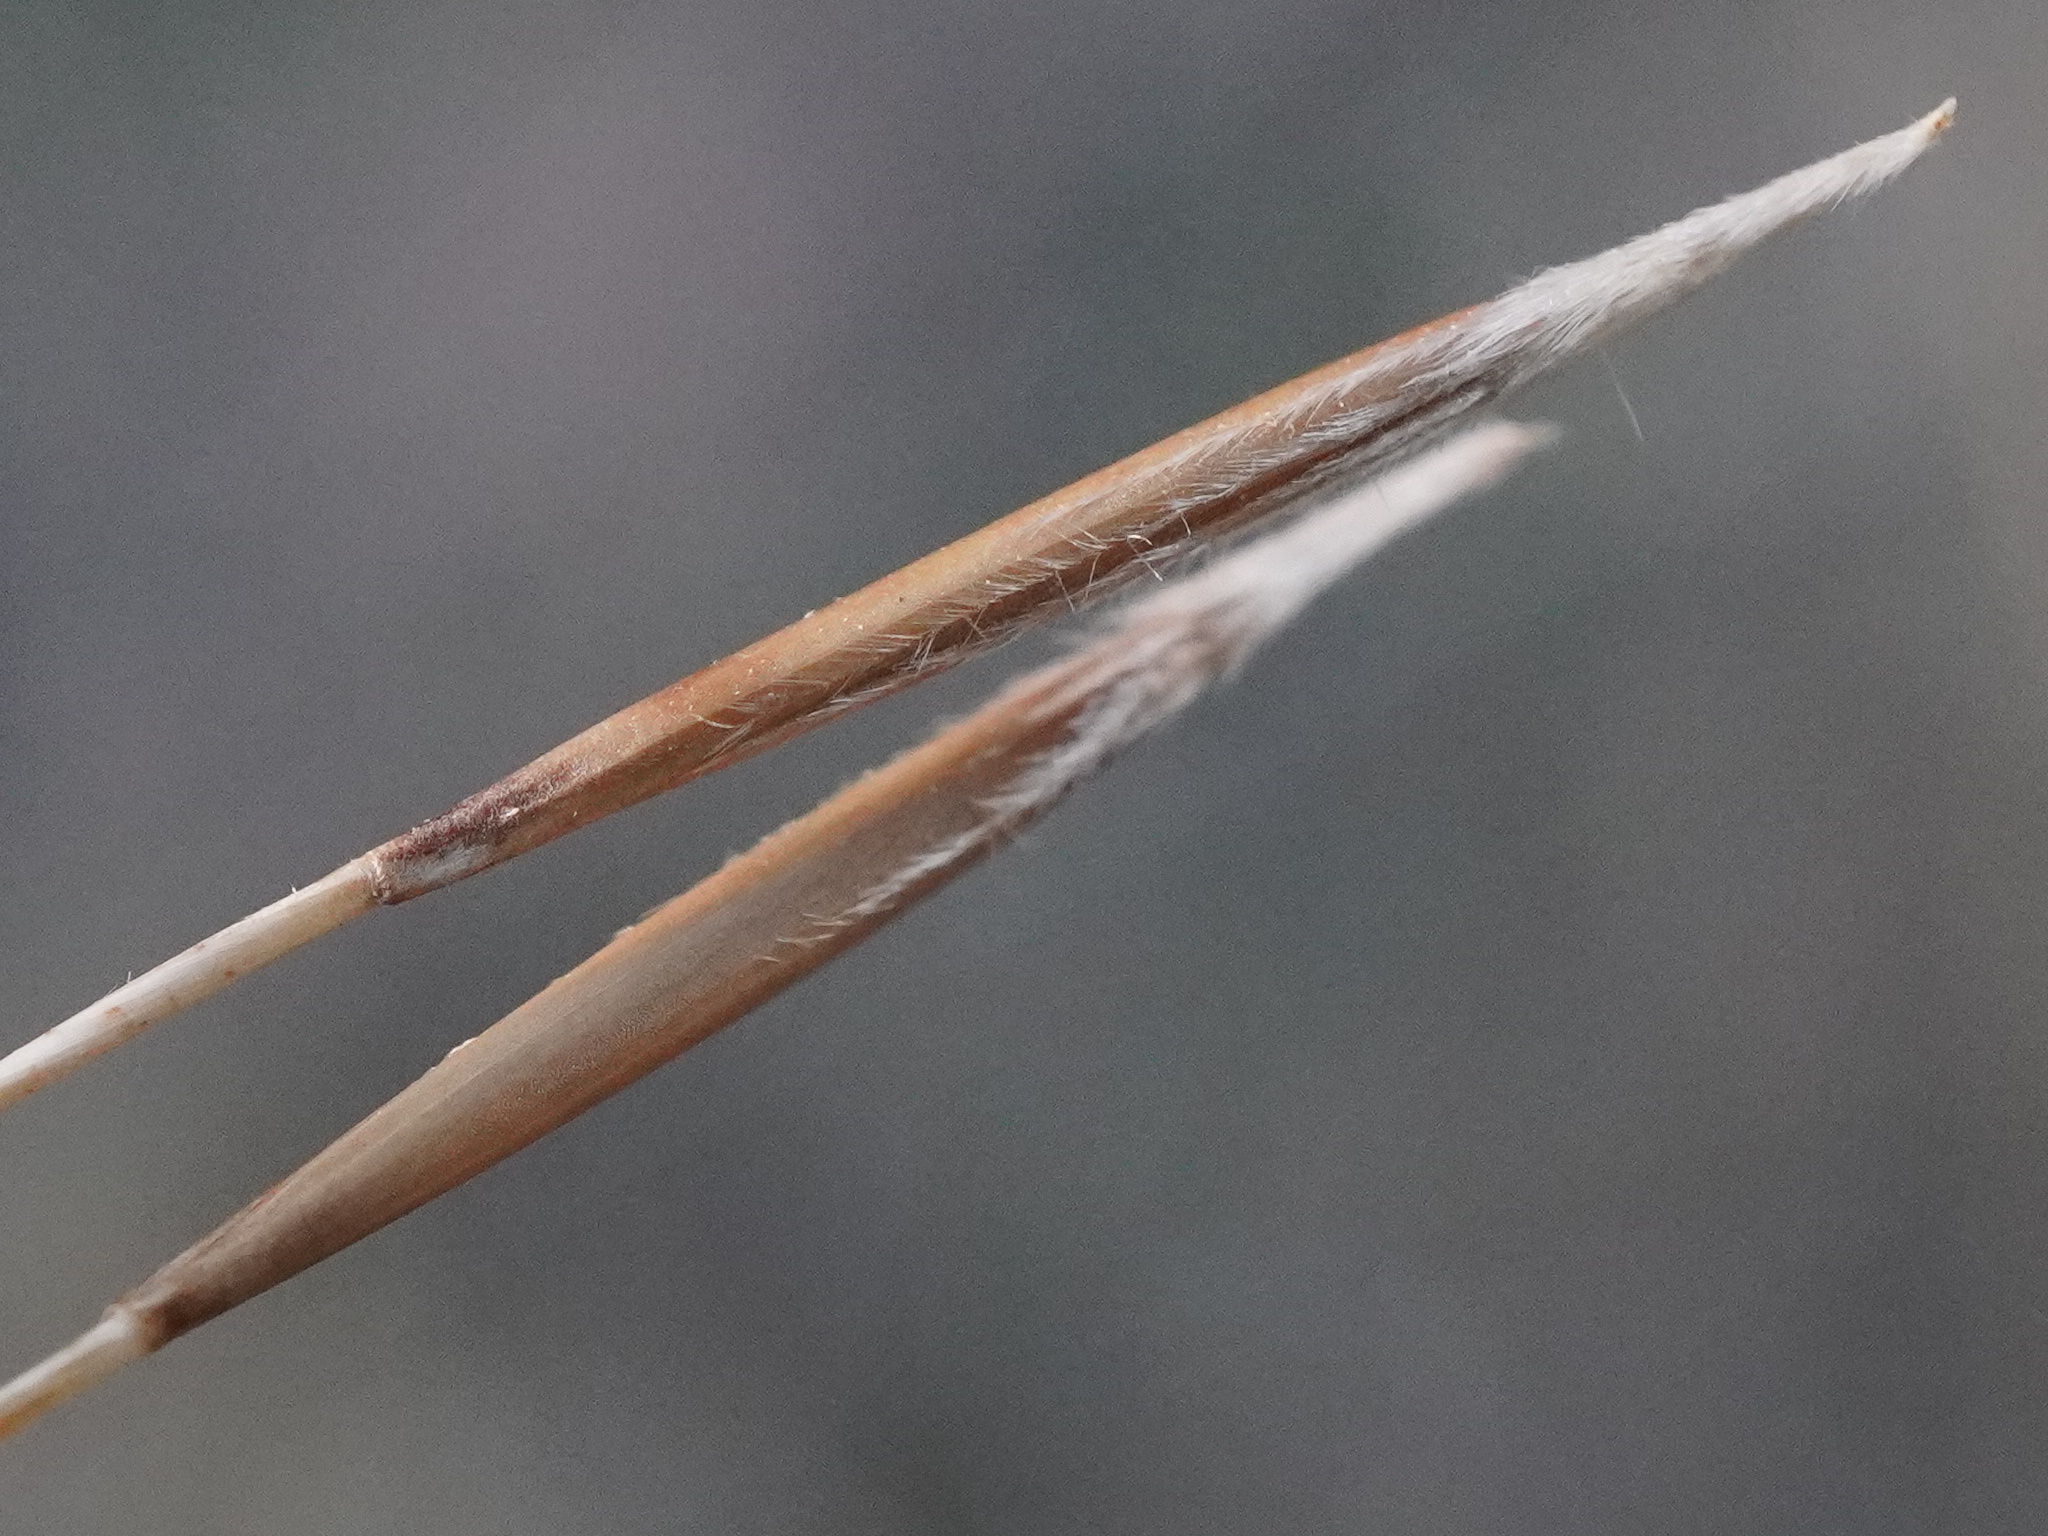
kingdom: Plantae
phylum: Tracheophyta
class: Liliopsida
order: Poales
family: Poaceae
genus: Stipa
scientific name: Stipa capillata
